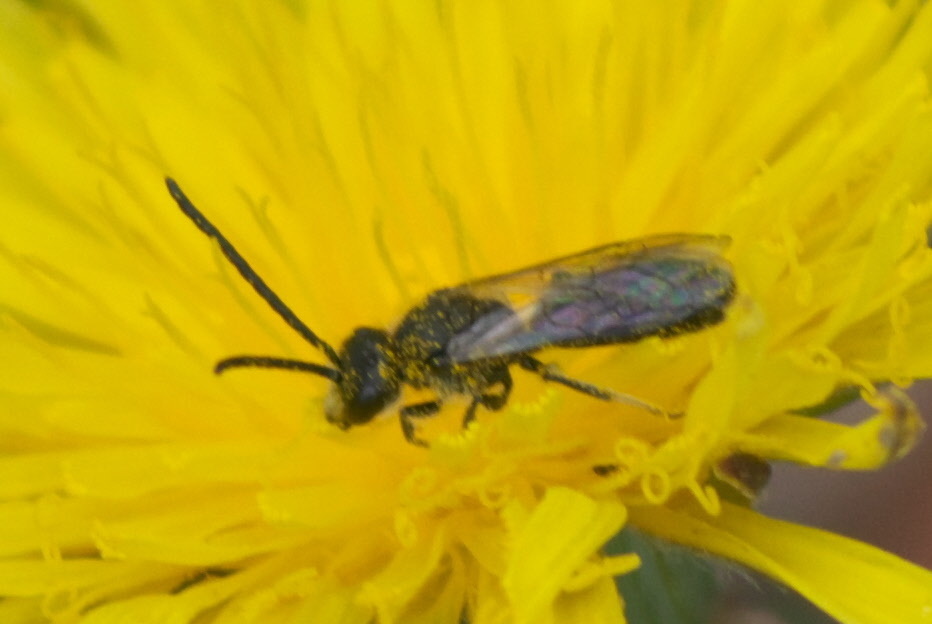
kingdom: Animalia
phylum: Arthropoda
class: Insecta
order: Hymenoptera
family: Halictidae
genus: Lasioglossum
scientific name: Lasioglossum
